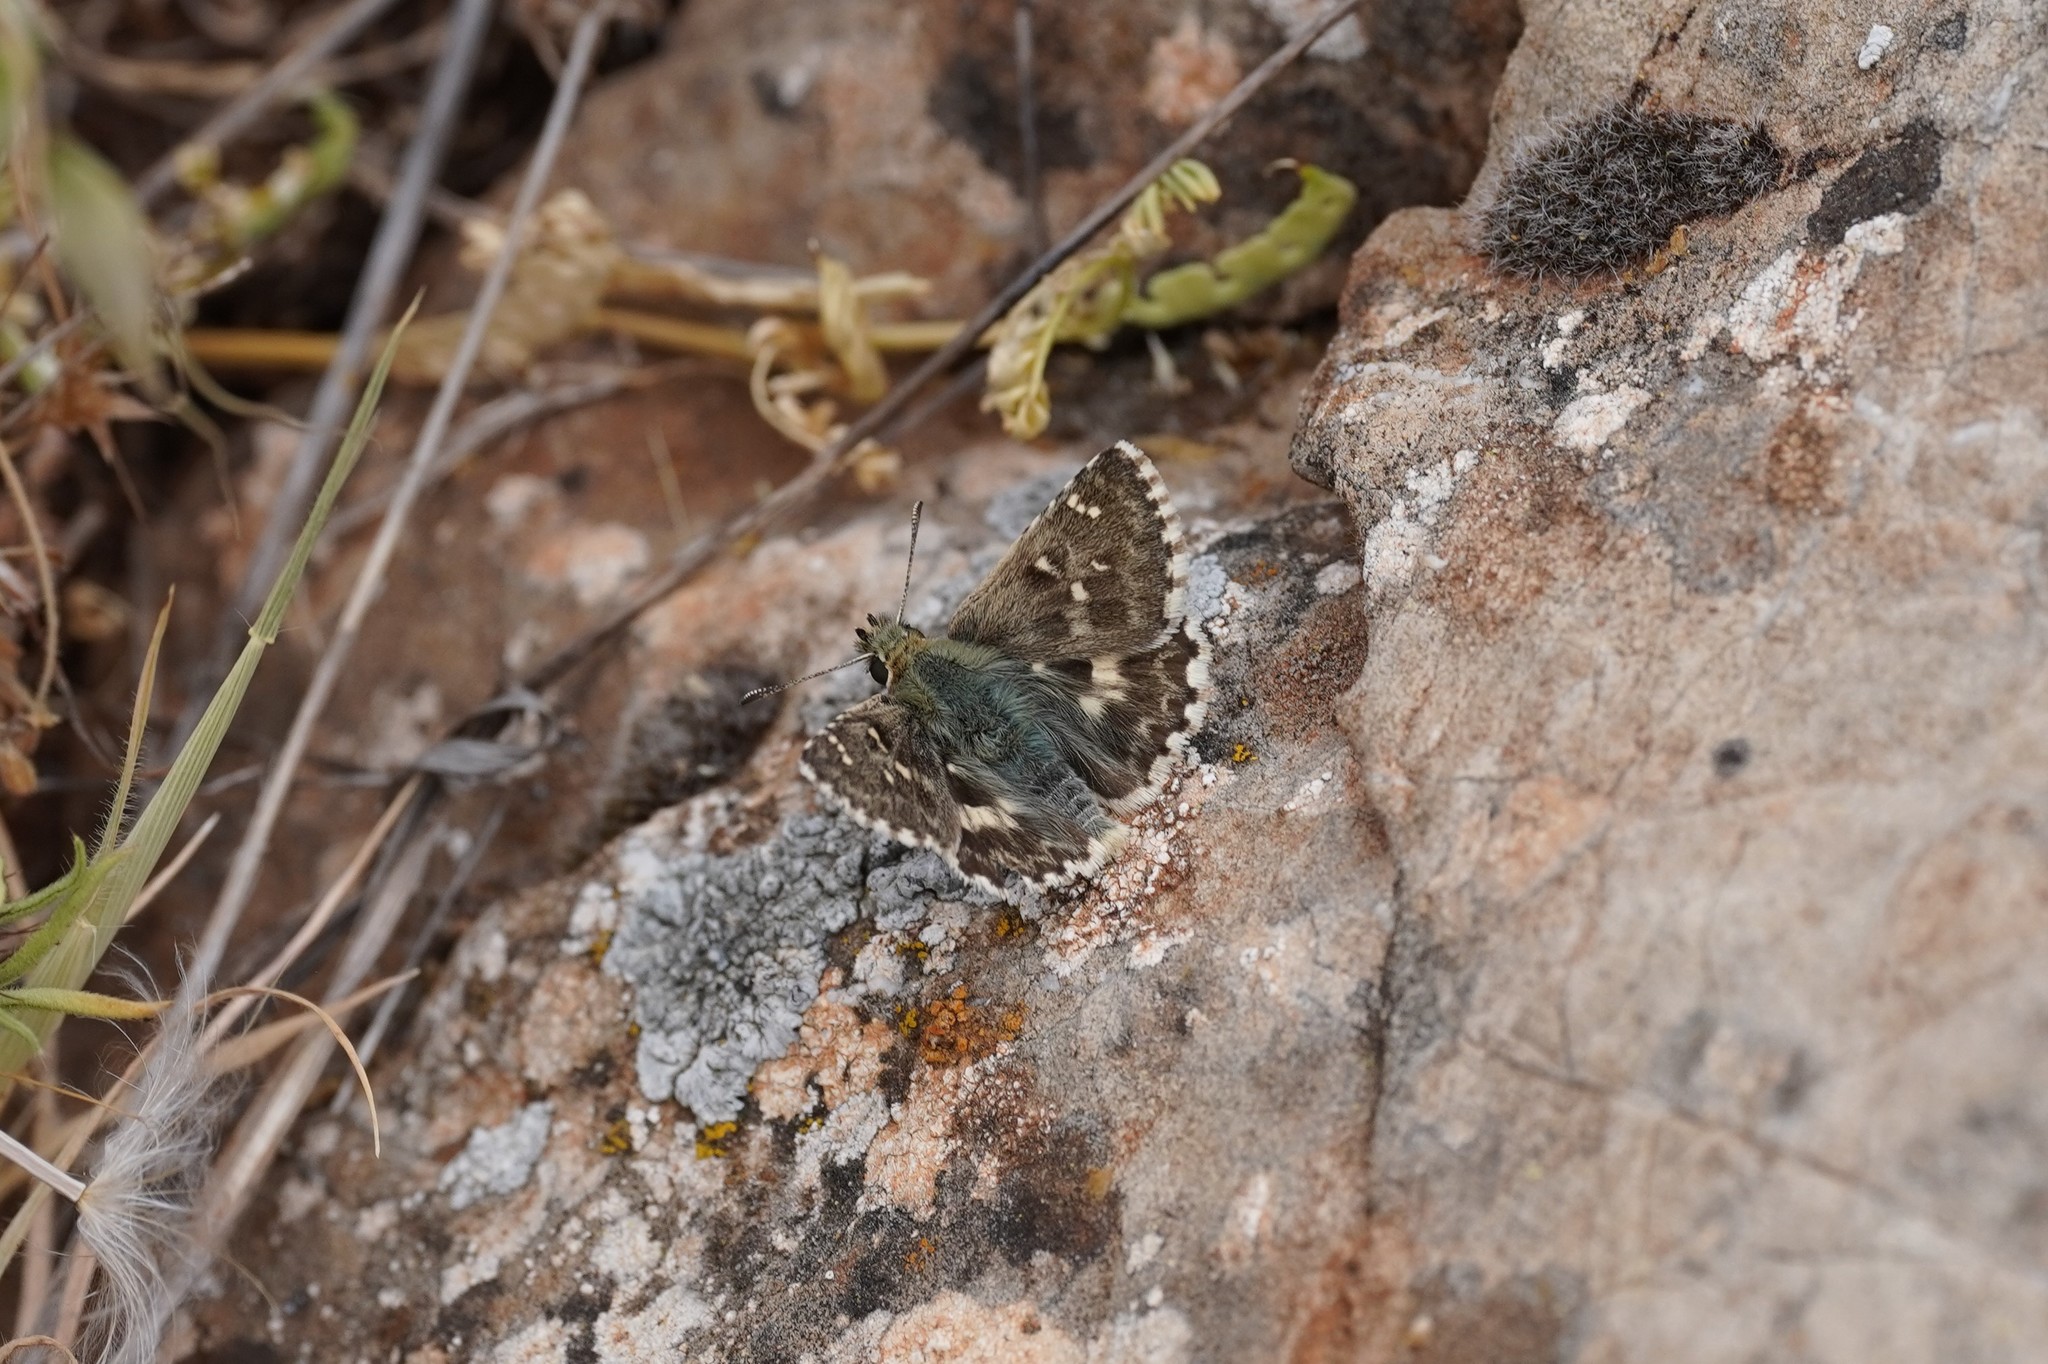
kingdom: Animalia
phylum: Arthropoda
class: Insecta
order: Lepidoptera
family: Hesperiidae
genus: Syrichtus
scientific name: Syrichtus Muschampia proto
